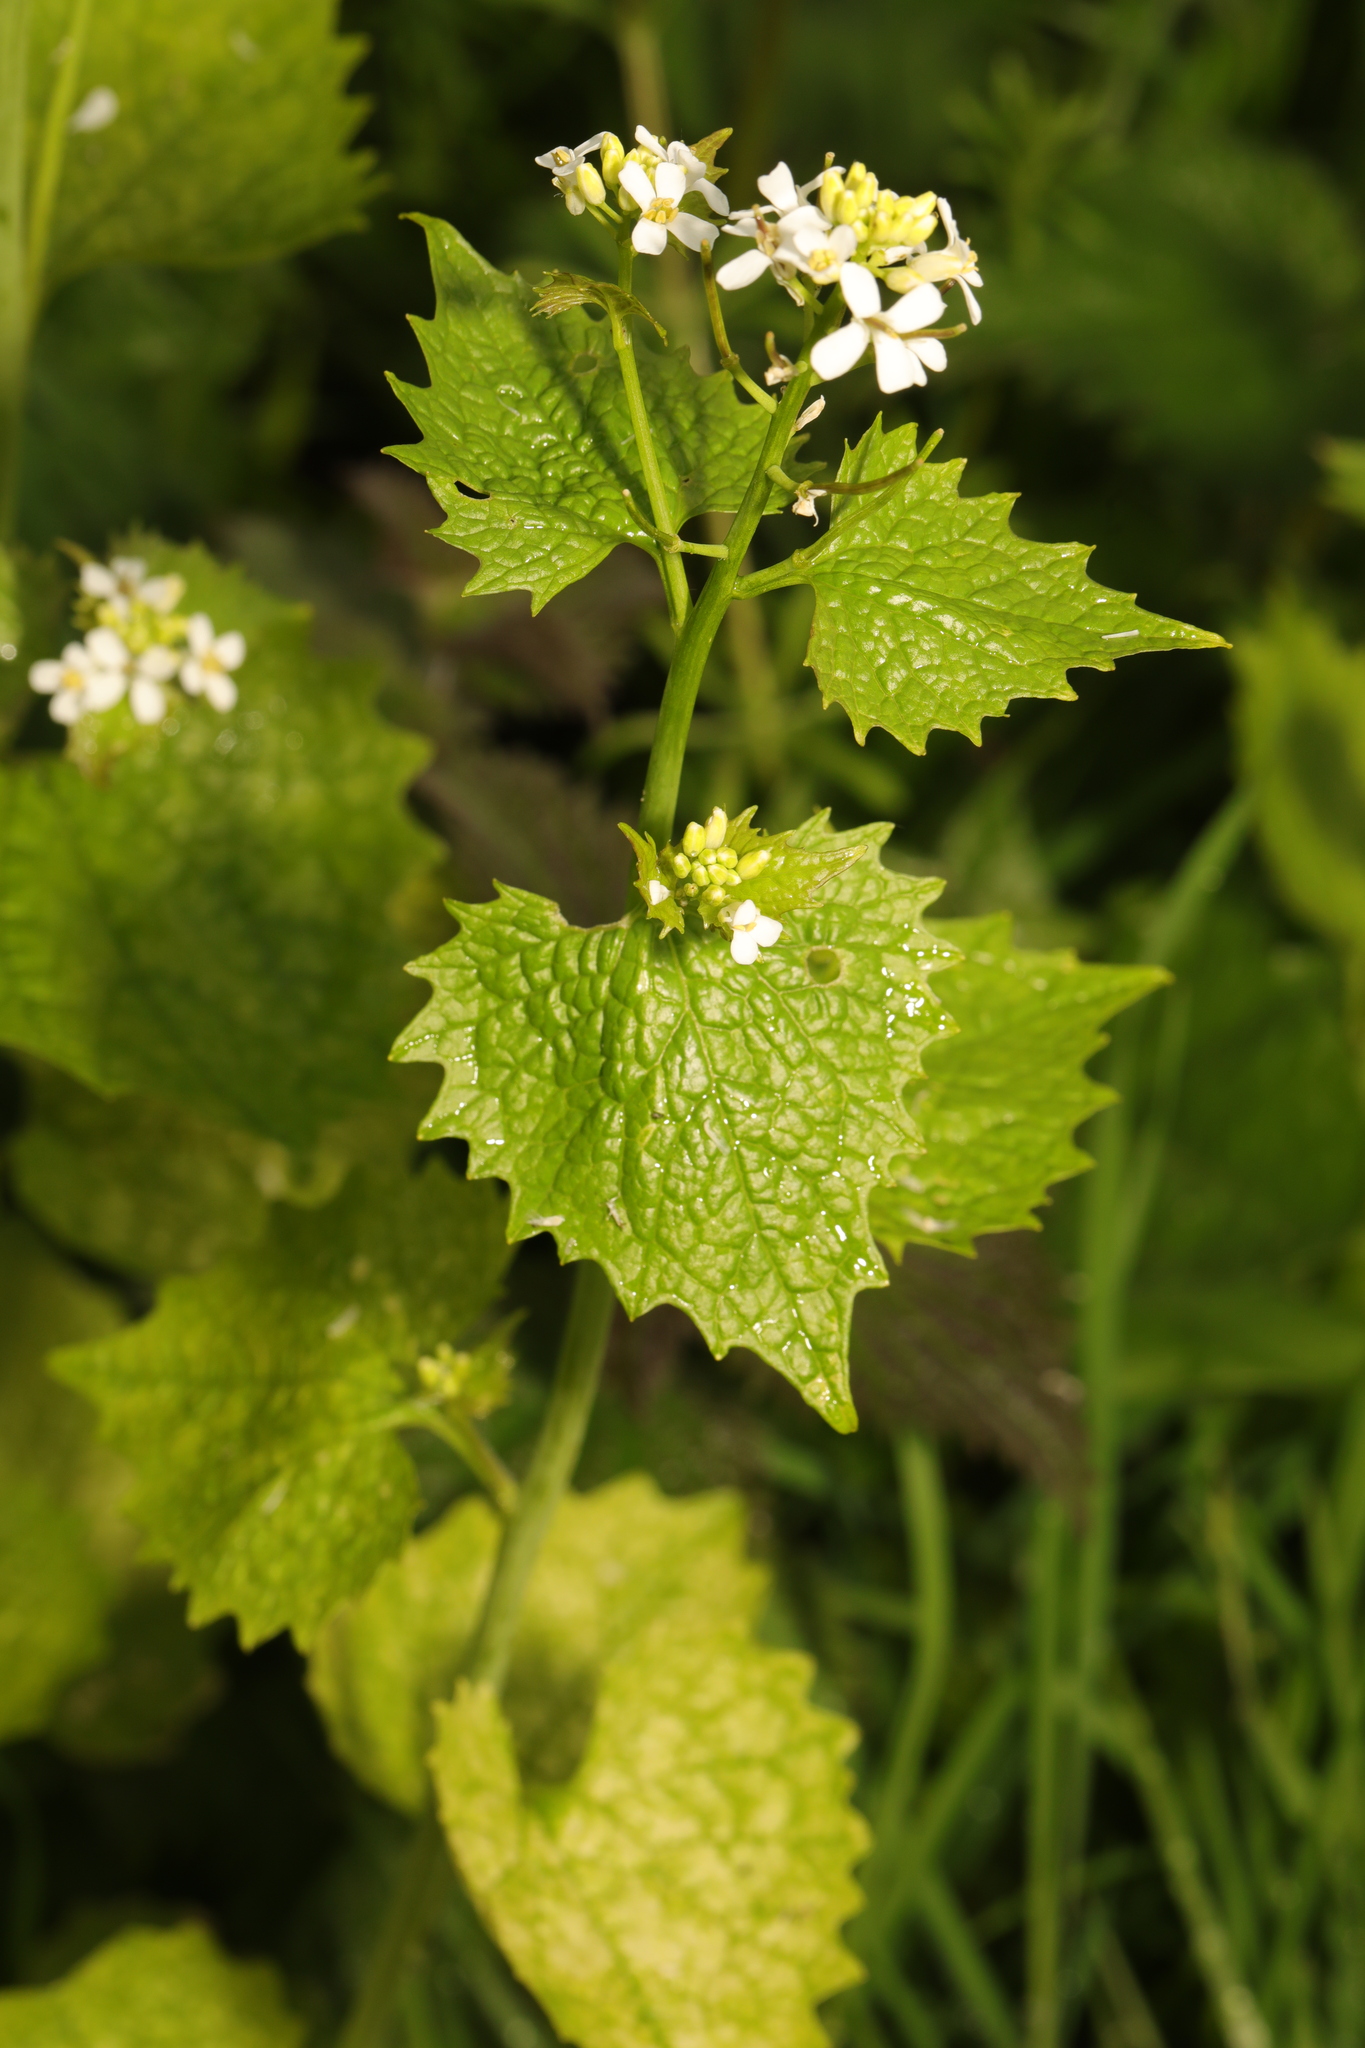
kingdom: Plantae
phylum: Tracheophyta
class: Magnoliopsida
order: Brassicales
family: Brassicaceae
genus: Alliaria
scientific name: Alliaria petiolata
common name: Garlic mustard
